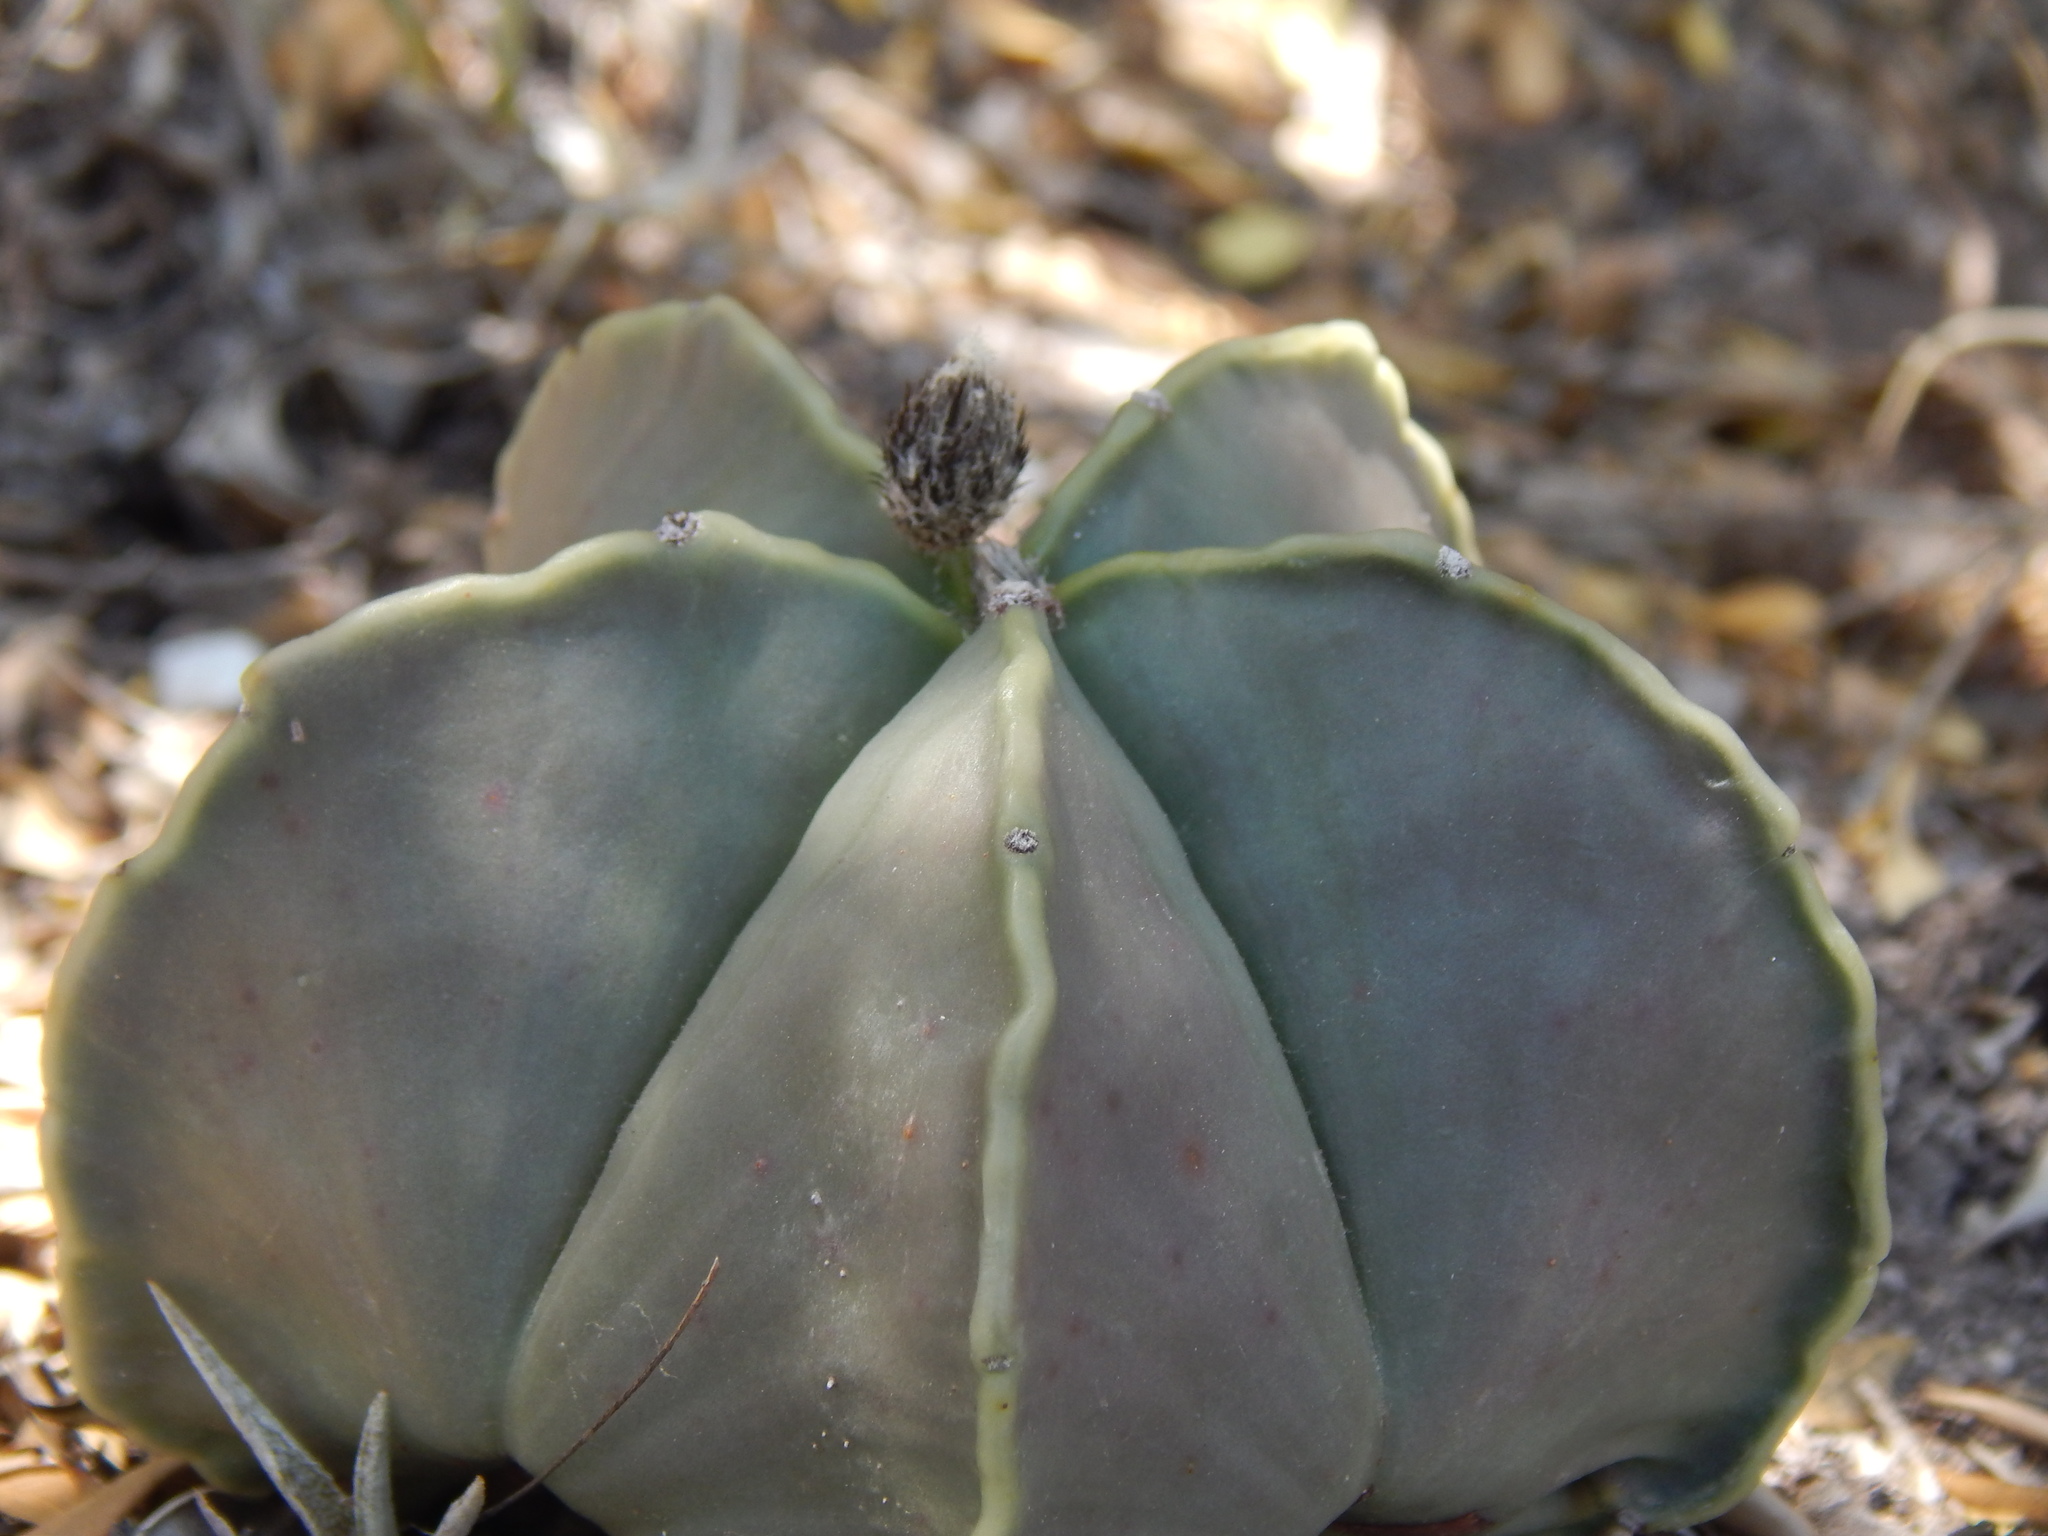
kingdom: Plantae
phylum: Tracheophyta
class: Magnoliopsida
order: Caryophyllales
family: Cactaceae
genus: Astrophytum
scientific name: Astrophytum myriostigma
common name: Bishop's-cap
